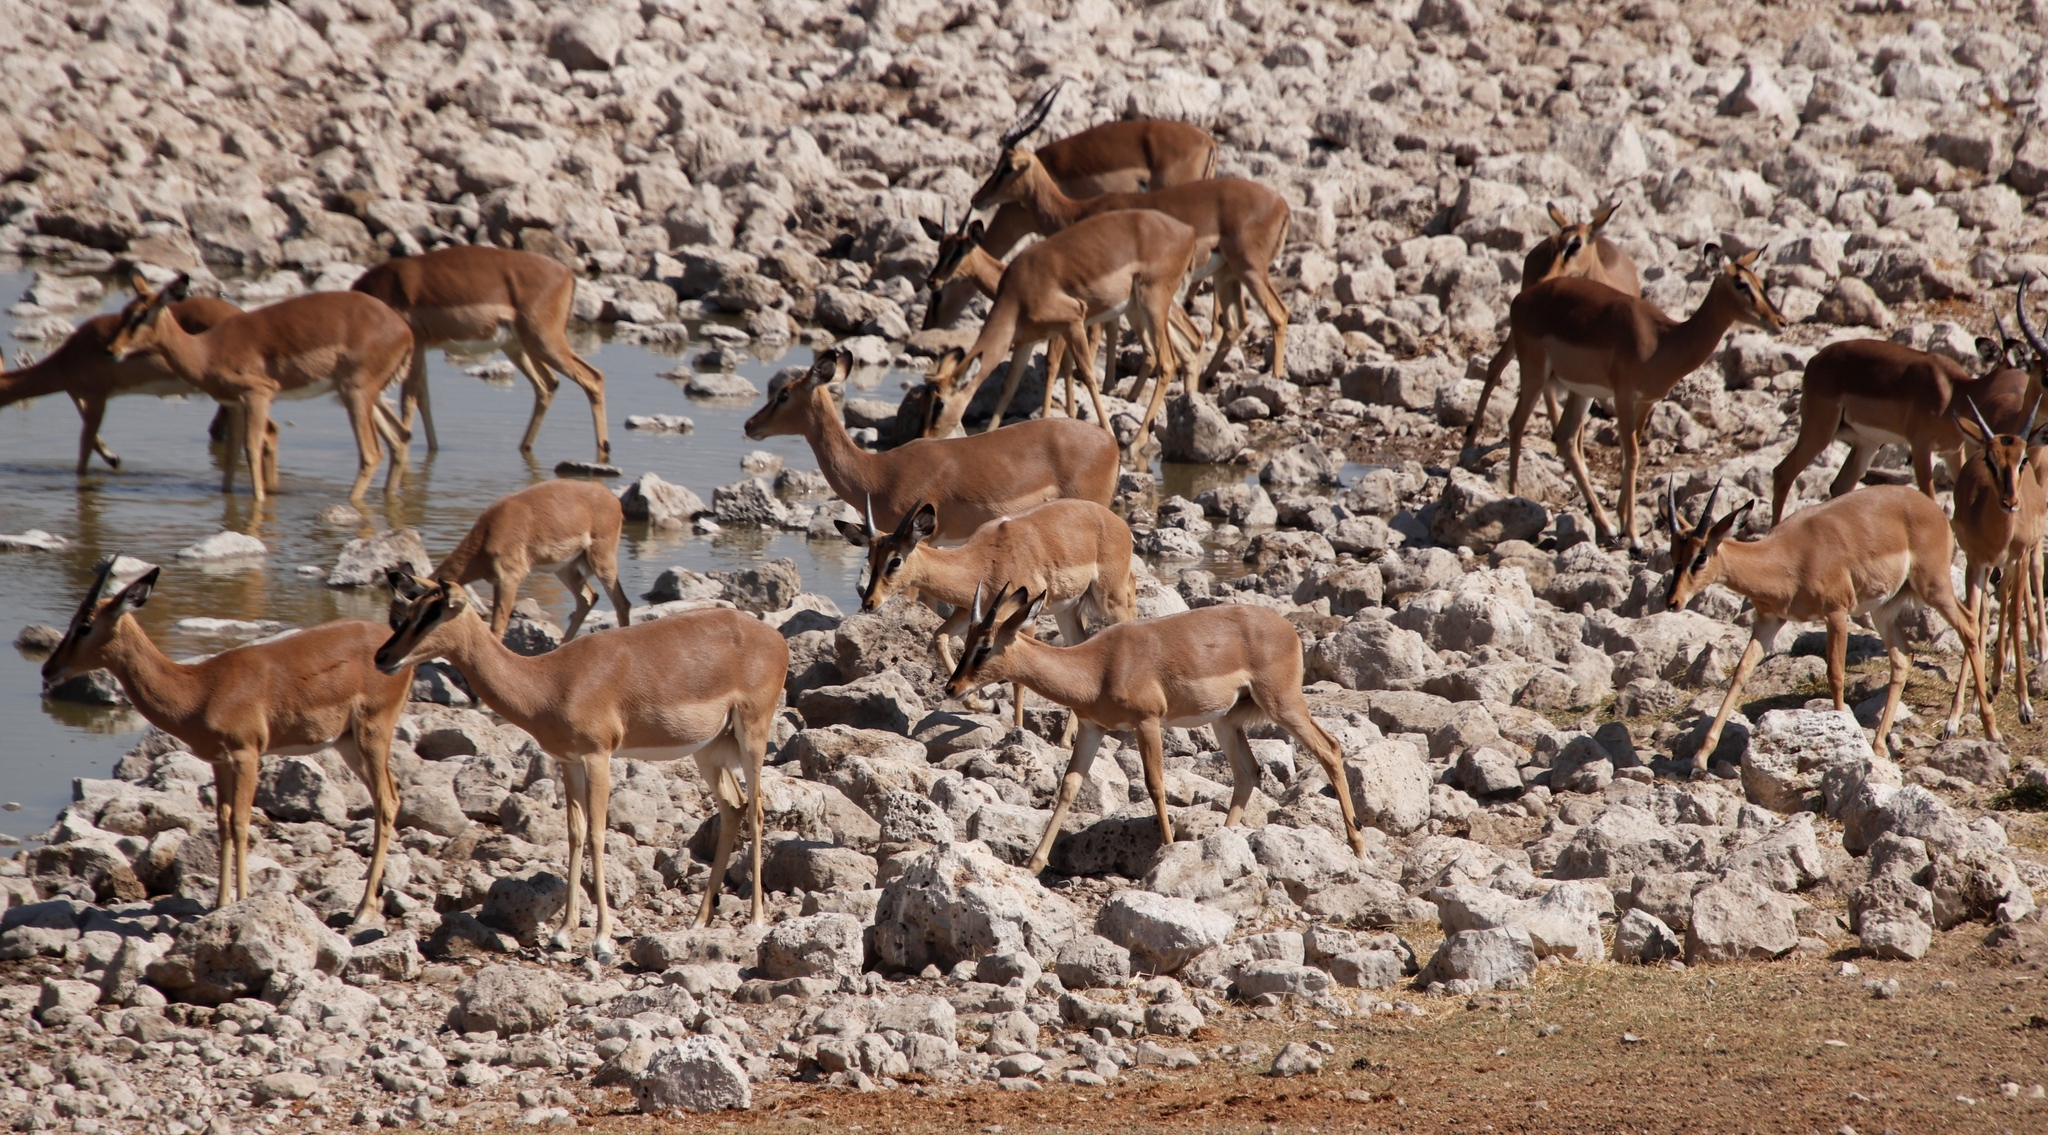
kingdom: Animalia
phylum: Chordata
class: Mammalia
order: Artiodactyla
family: Bovidae
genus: Aepyceros
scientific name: Aepyceros melampus
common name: Impala
